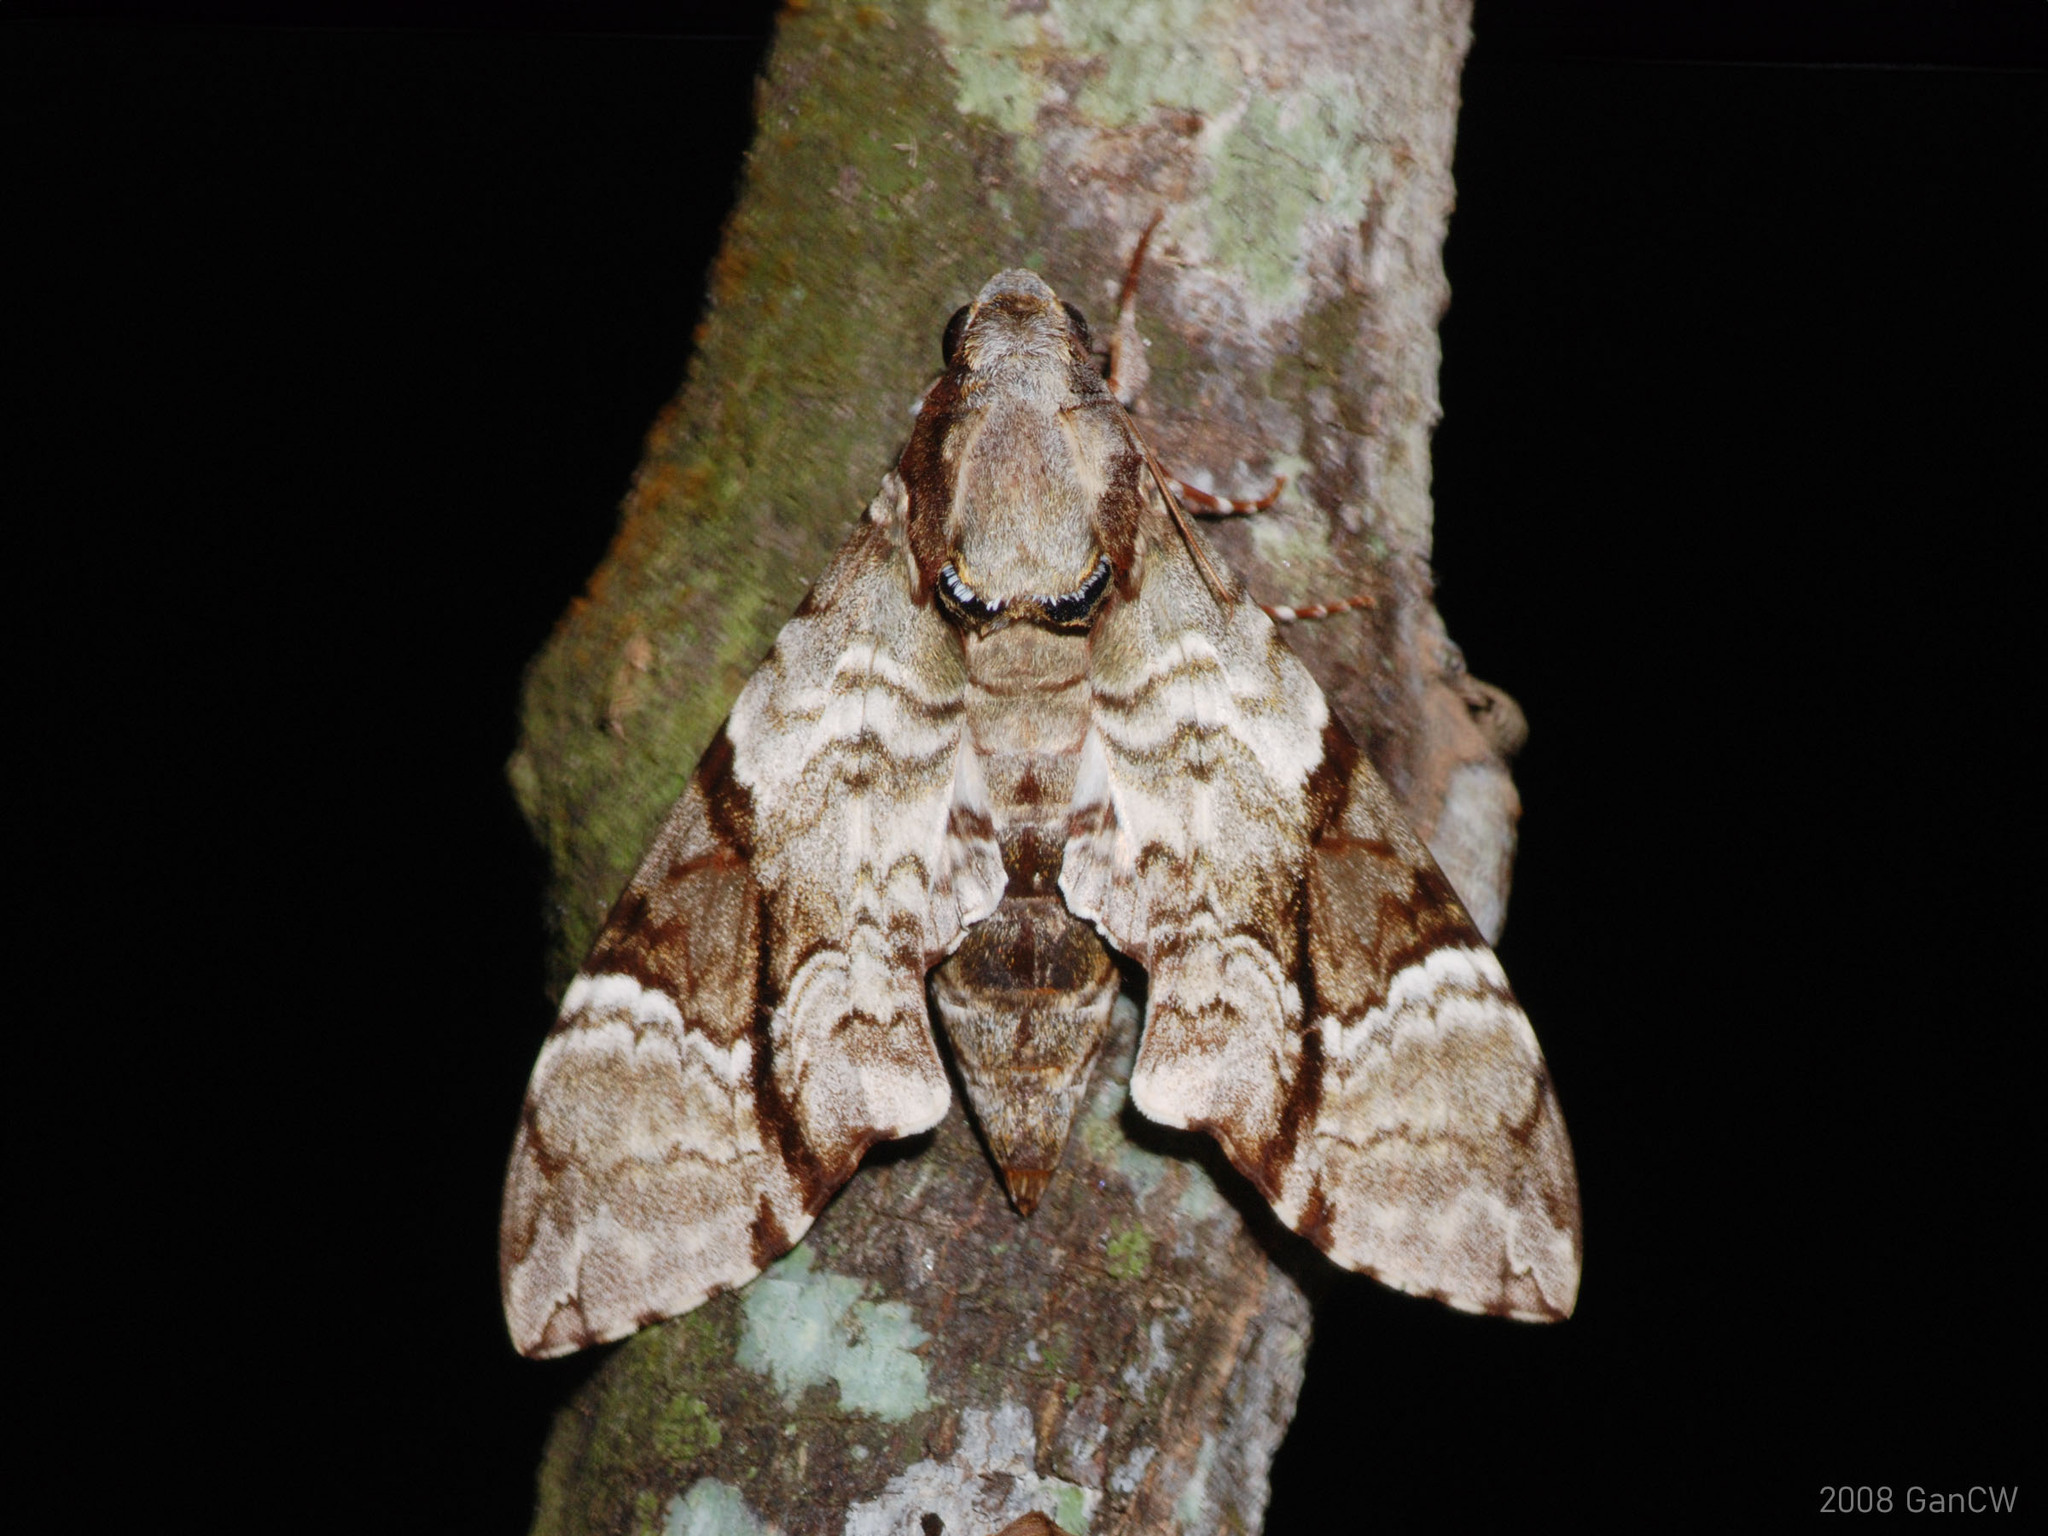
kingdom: Animalia
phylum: Arthropoda
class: Insecta
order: Lepidoptera
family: Sphingidae
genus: Megacorma
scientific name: Megacorma obliqua
